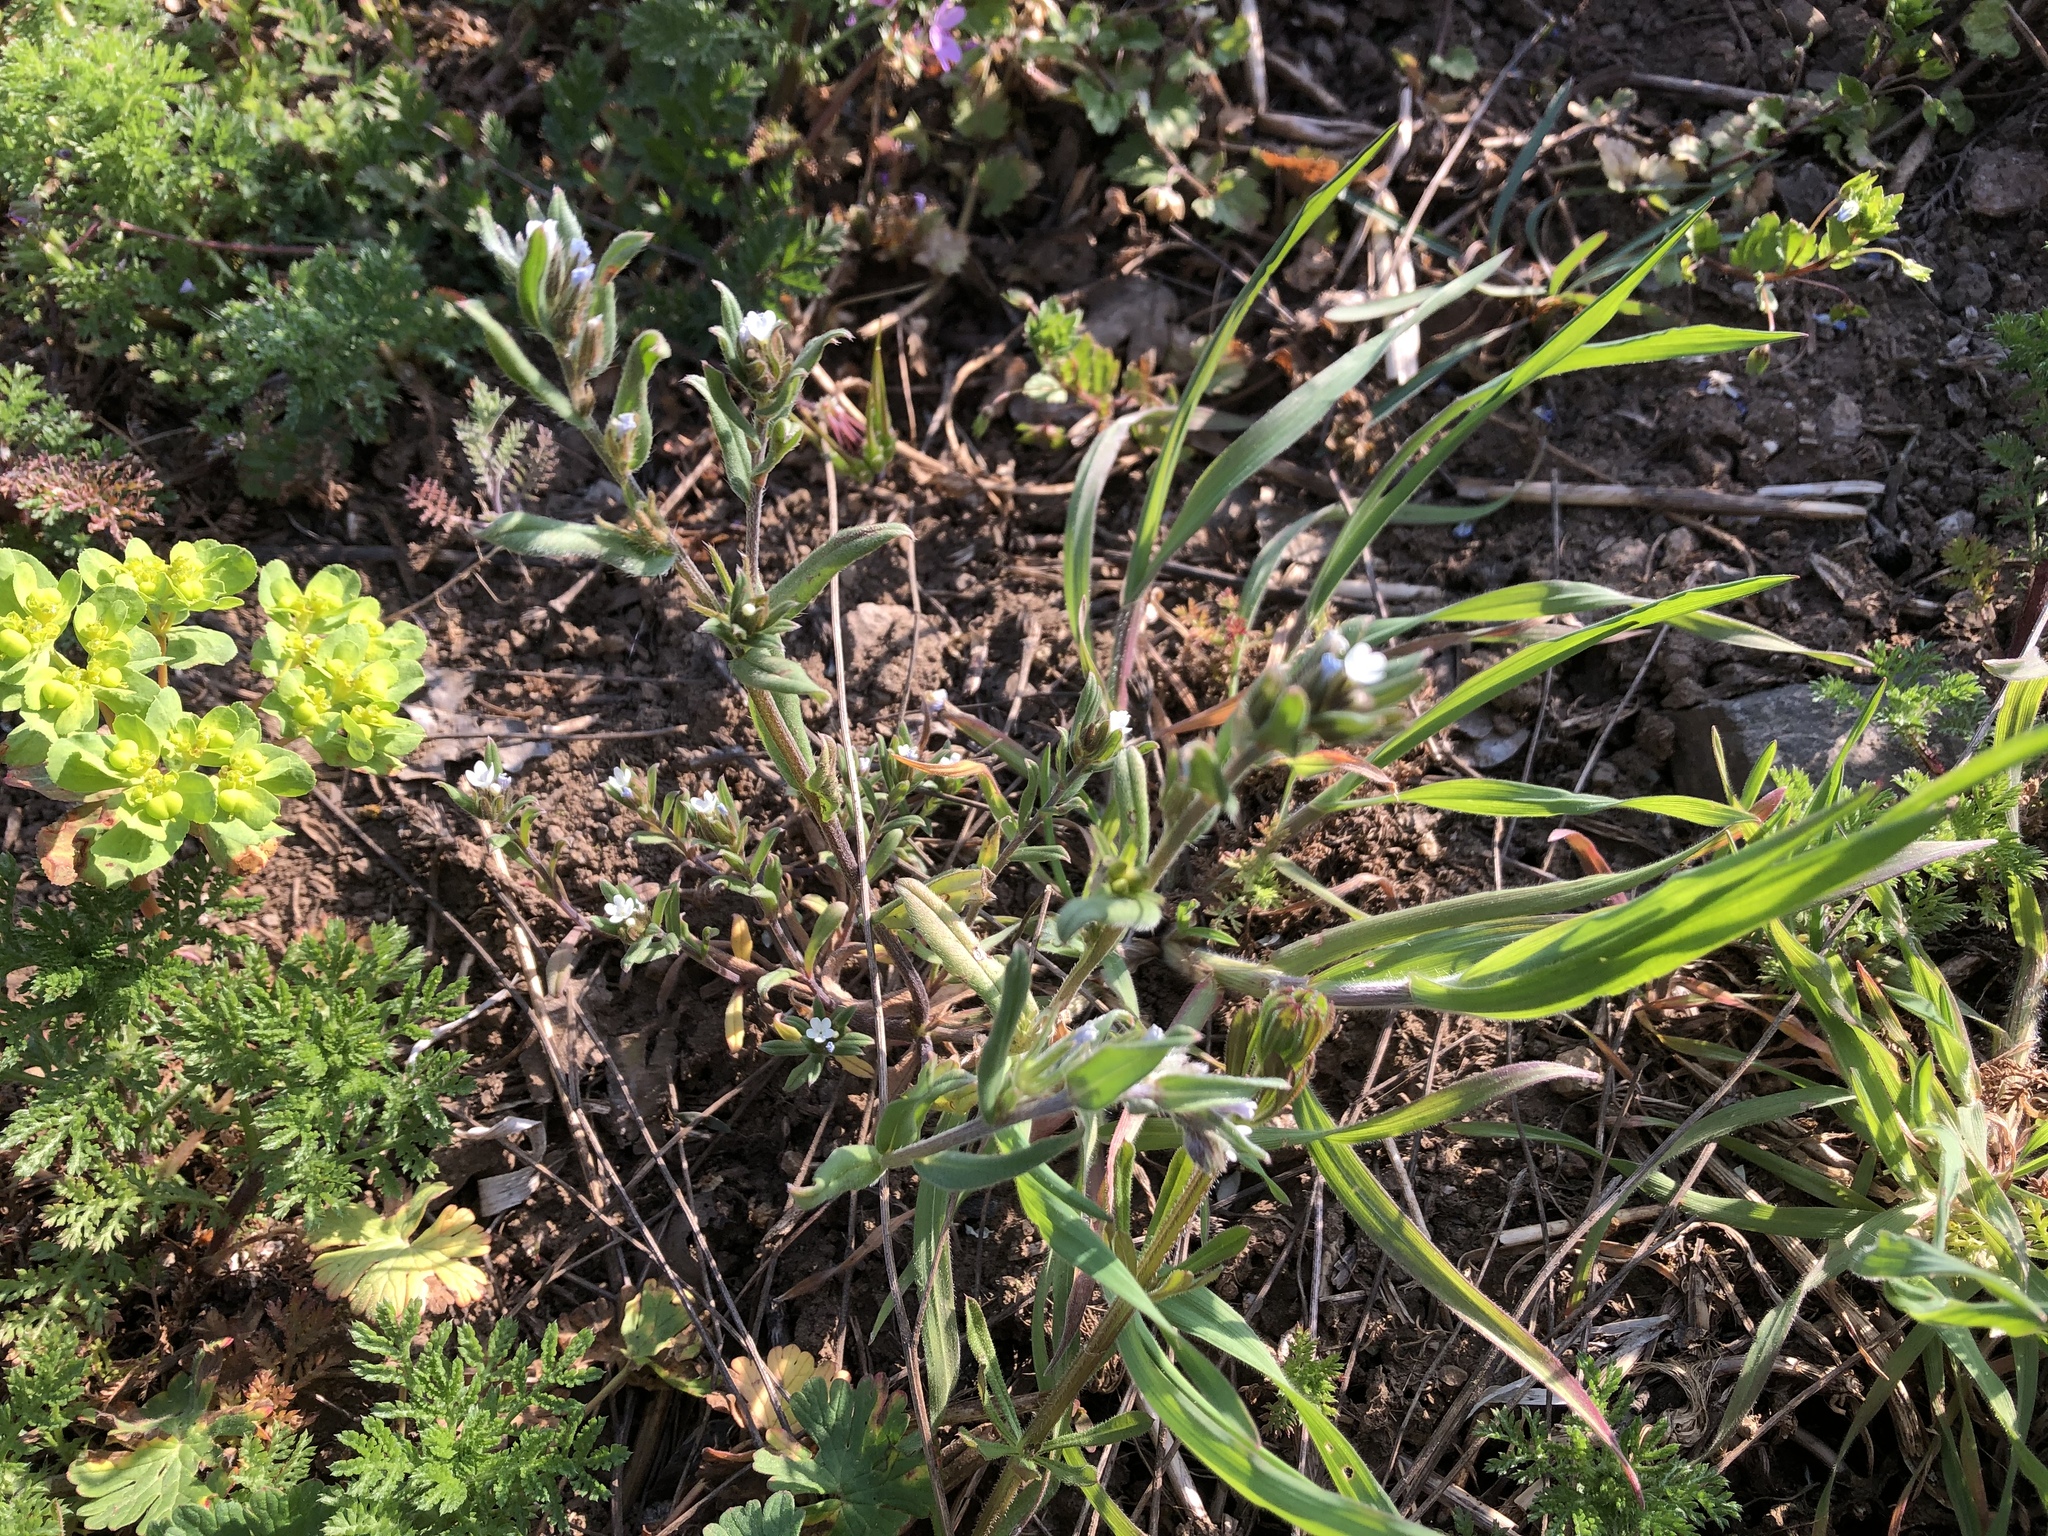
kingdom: Plantae
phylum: Tracheophyta
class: Magnoliopsida
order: Boraginales
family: Boraginaceae
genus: Buglossoides
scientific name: Buglossoides arvensis
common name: Corn gromwell
